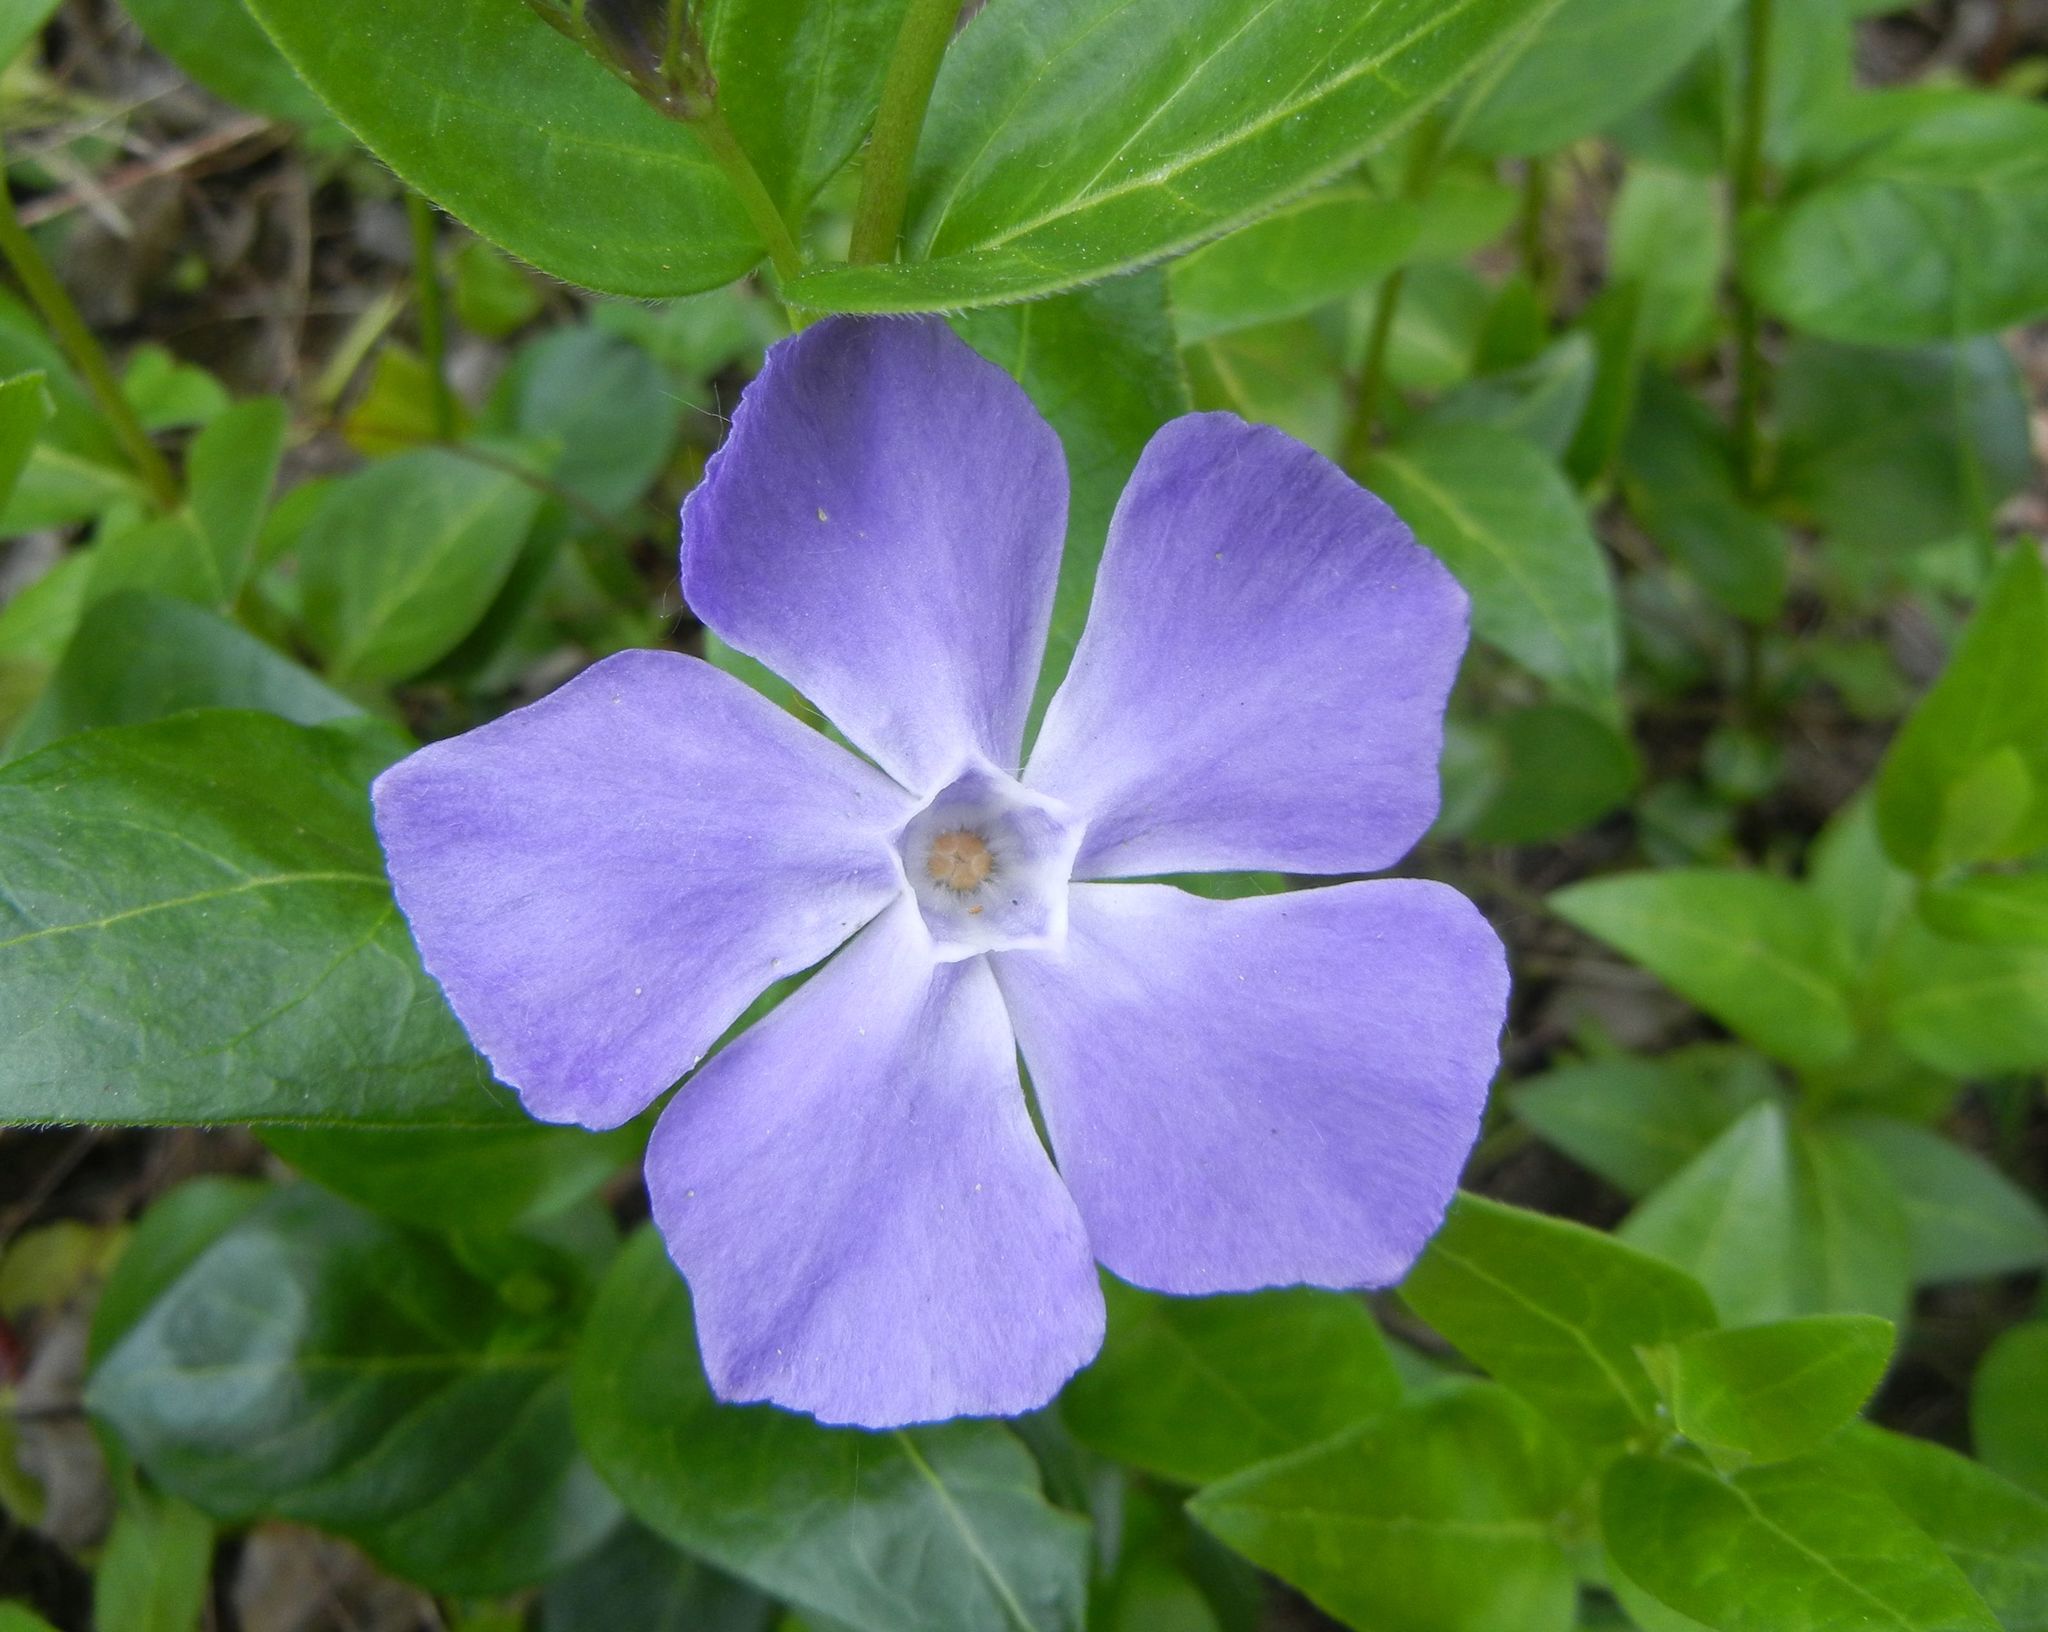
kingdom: Plantae
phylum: Tracheophyta
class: Magnoliopsida
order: Gentianales
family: Apocynaceae
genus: Vinca
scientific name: Vinca major
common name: Greater periwinkle
